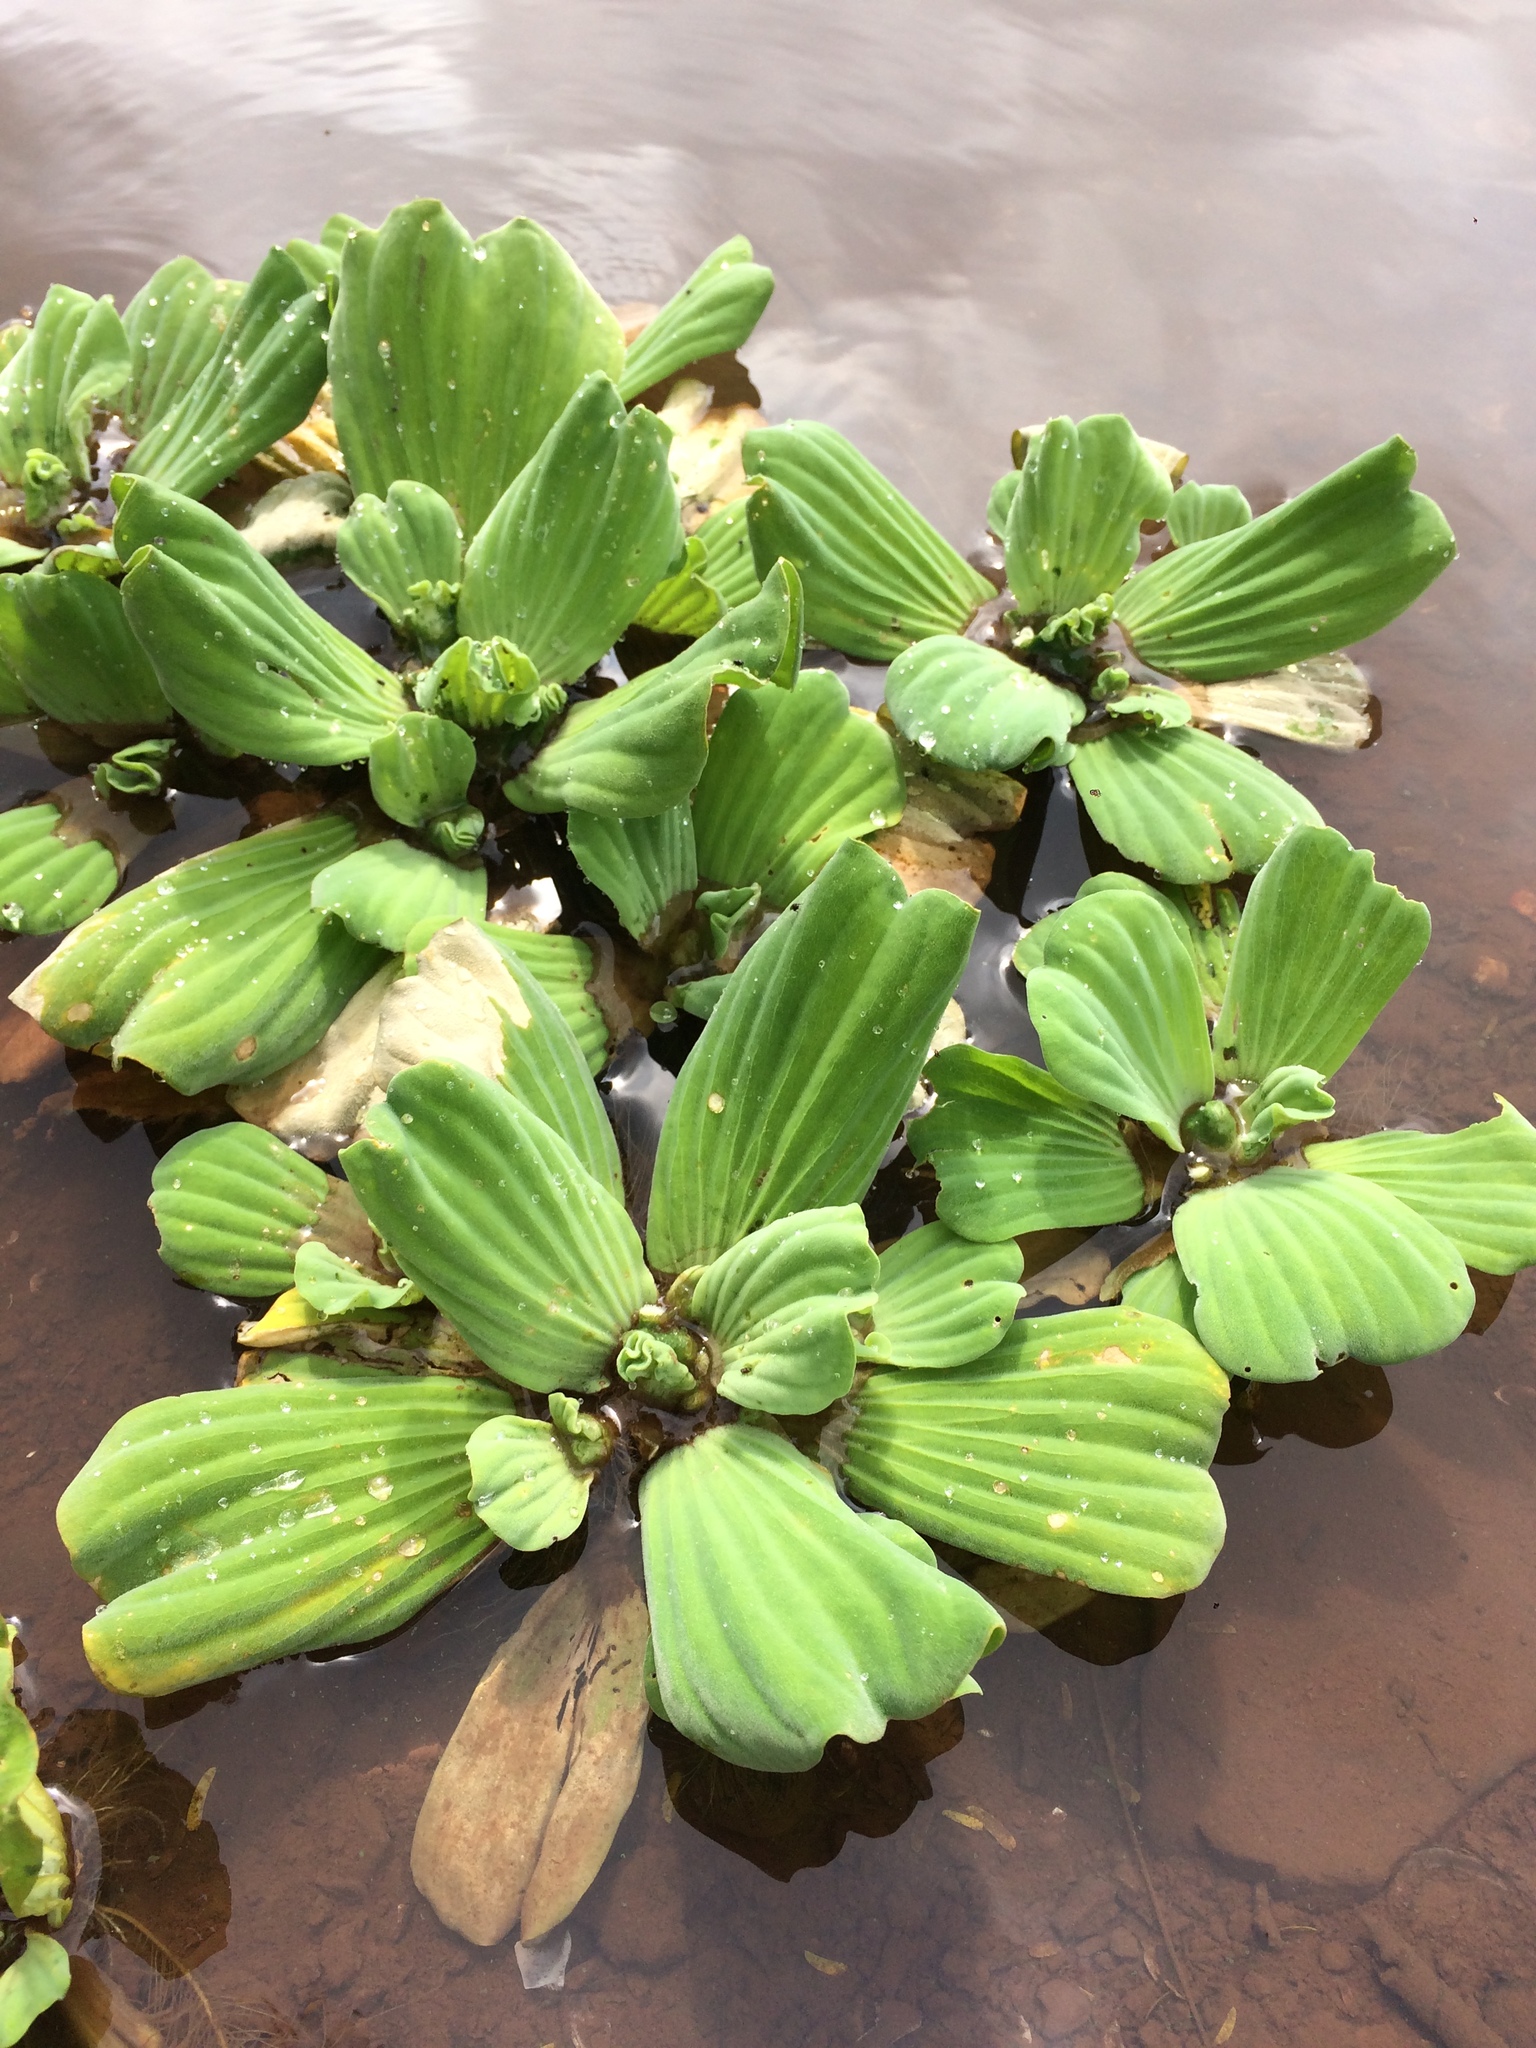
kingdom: Plantae
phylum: Tracheophyta
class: Liliopsida
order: Alismatales
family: Araceae
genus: Pistia
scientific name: Pistia stratiotes
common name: Water lettuce
